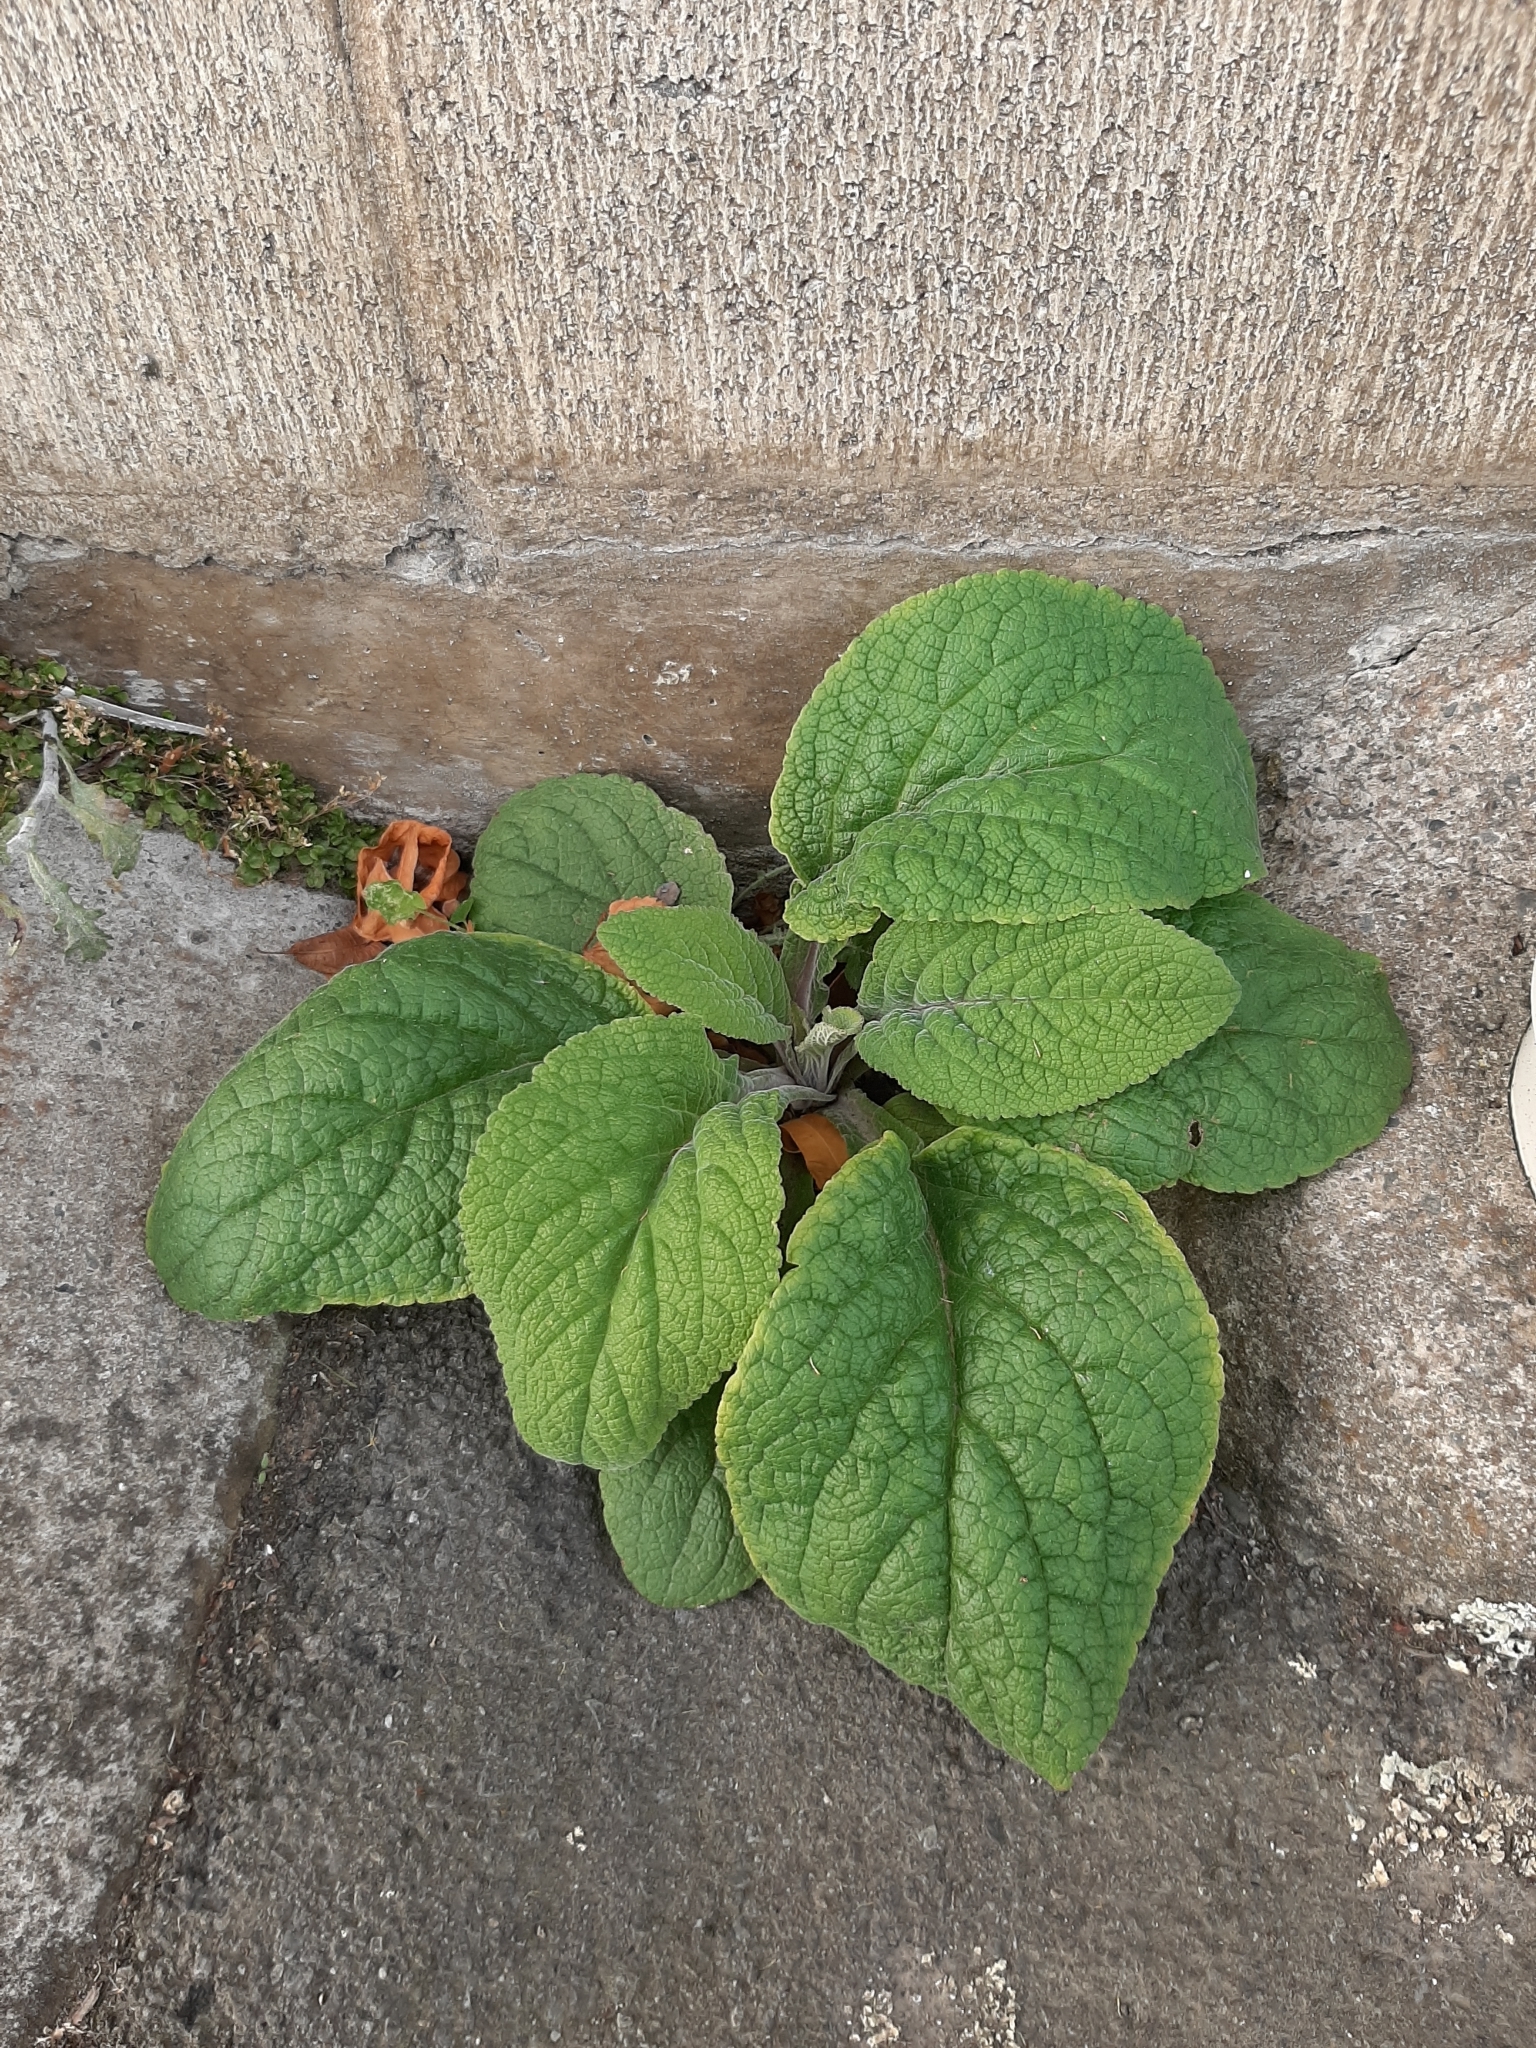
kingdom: Plantae
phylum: Tracheophyta
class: Magnoliopsida
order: Lamiales
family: Plantaginaceae
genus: Digitalis
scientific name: Digitalis purpurea
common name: Foxglove
